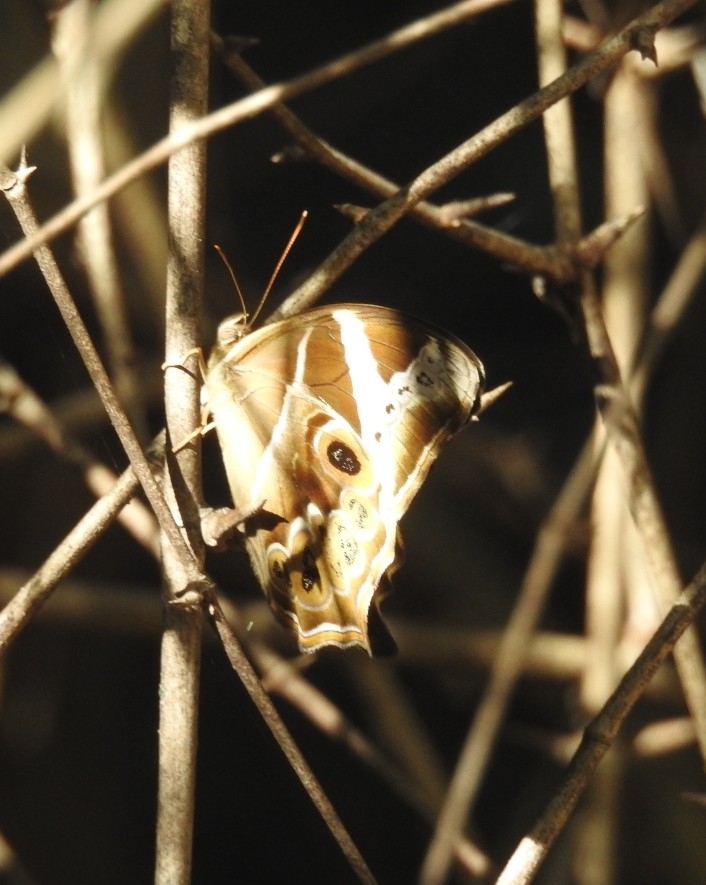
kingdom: Animalia
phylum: Arthropoda
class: Insecta
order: Lepidoptera
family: Nymphalidae
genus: Lethe
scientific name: Lethe europa
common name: Bamboo treebrown
